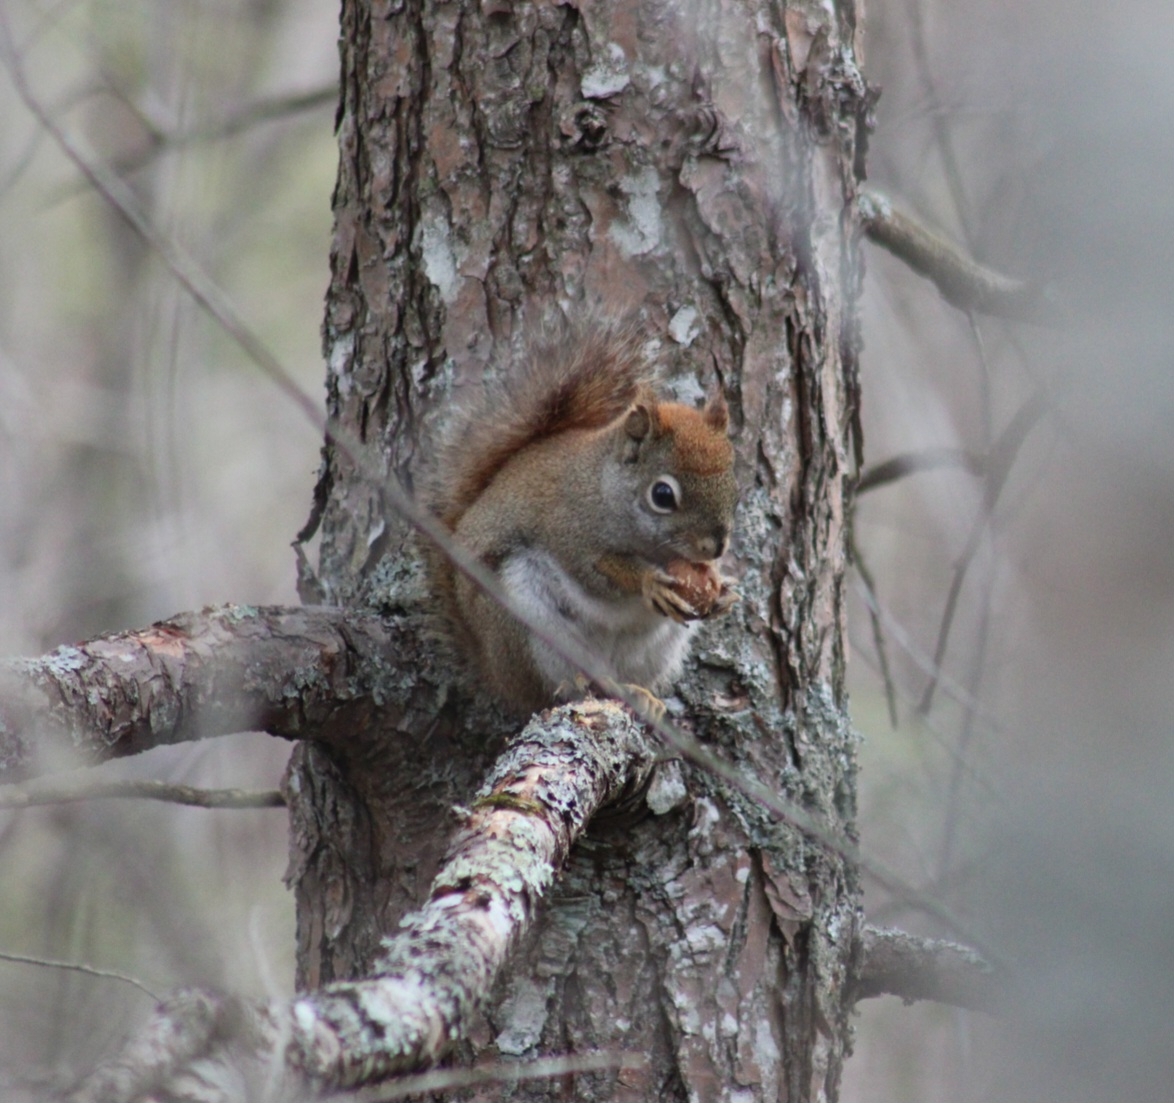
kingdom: Animalia
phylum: Chordata
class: Mammalia
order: Rodentia
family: Sciuridae
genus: Tamiasciurus
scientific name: Tamiasciurus hudsonicus
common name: Red squirrel
